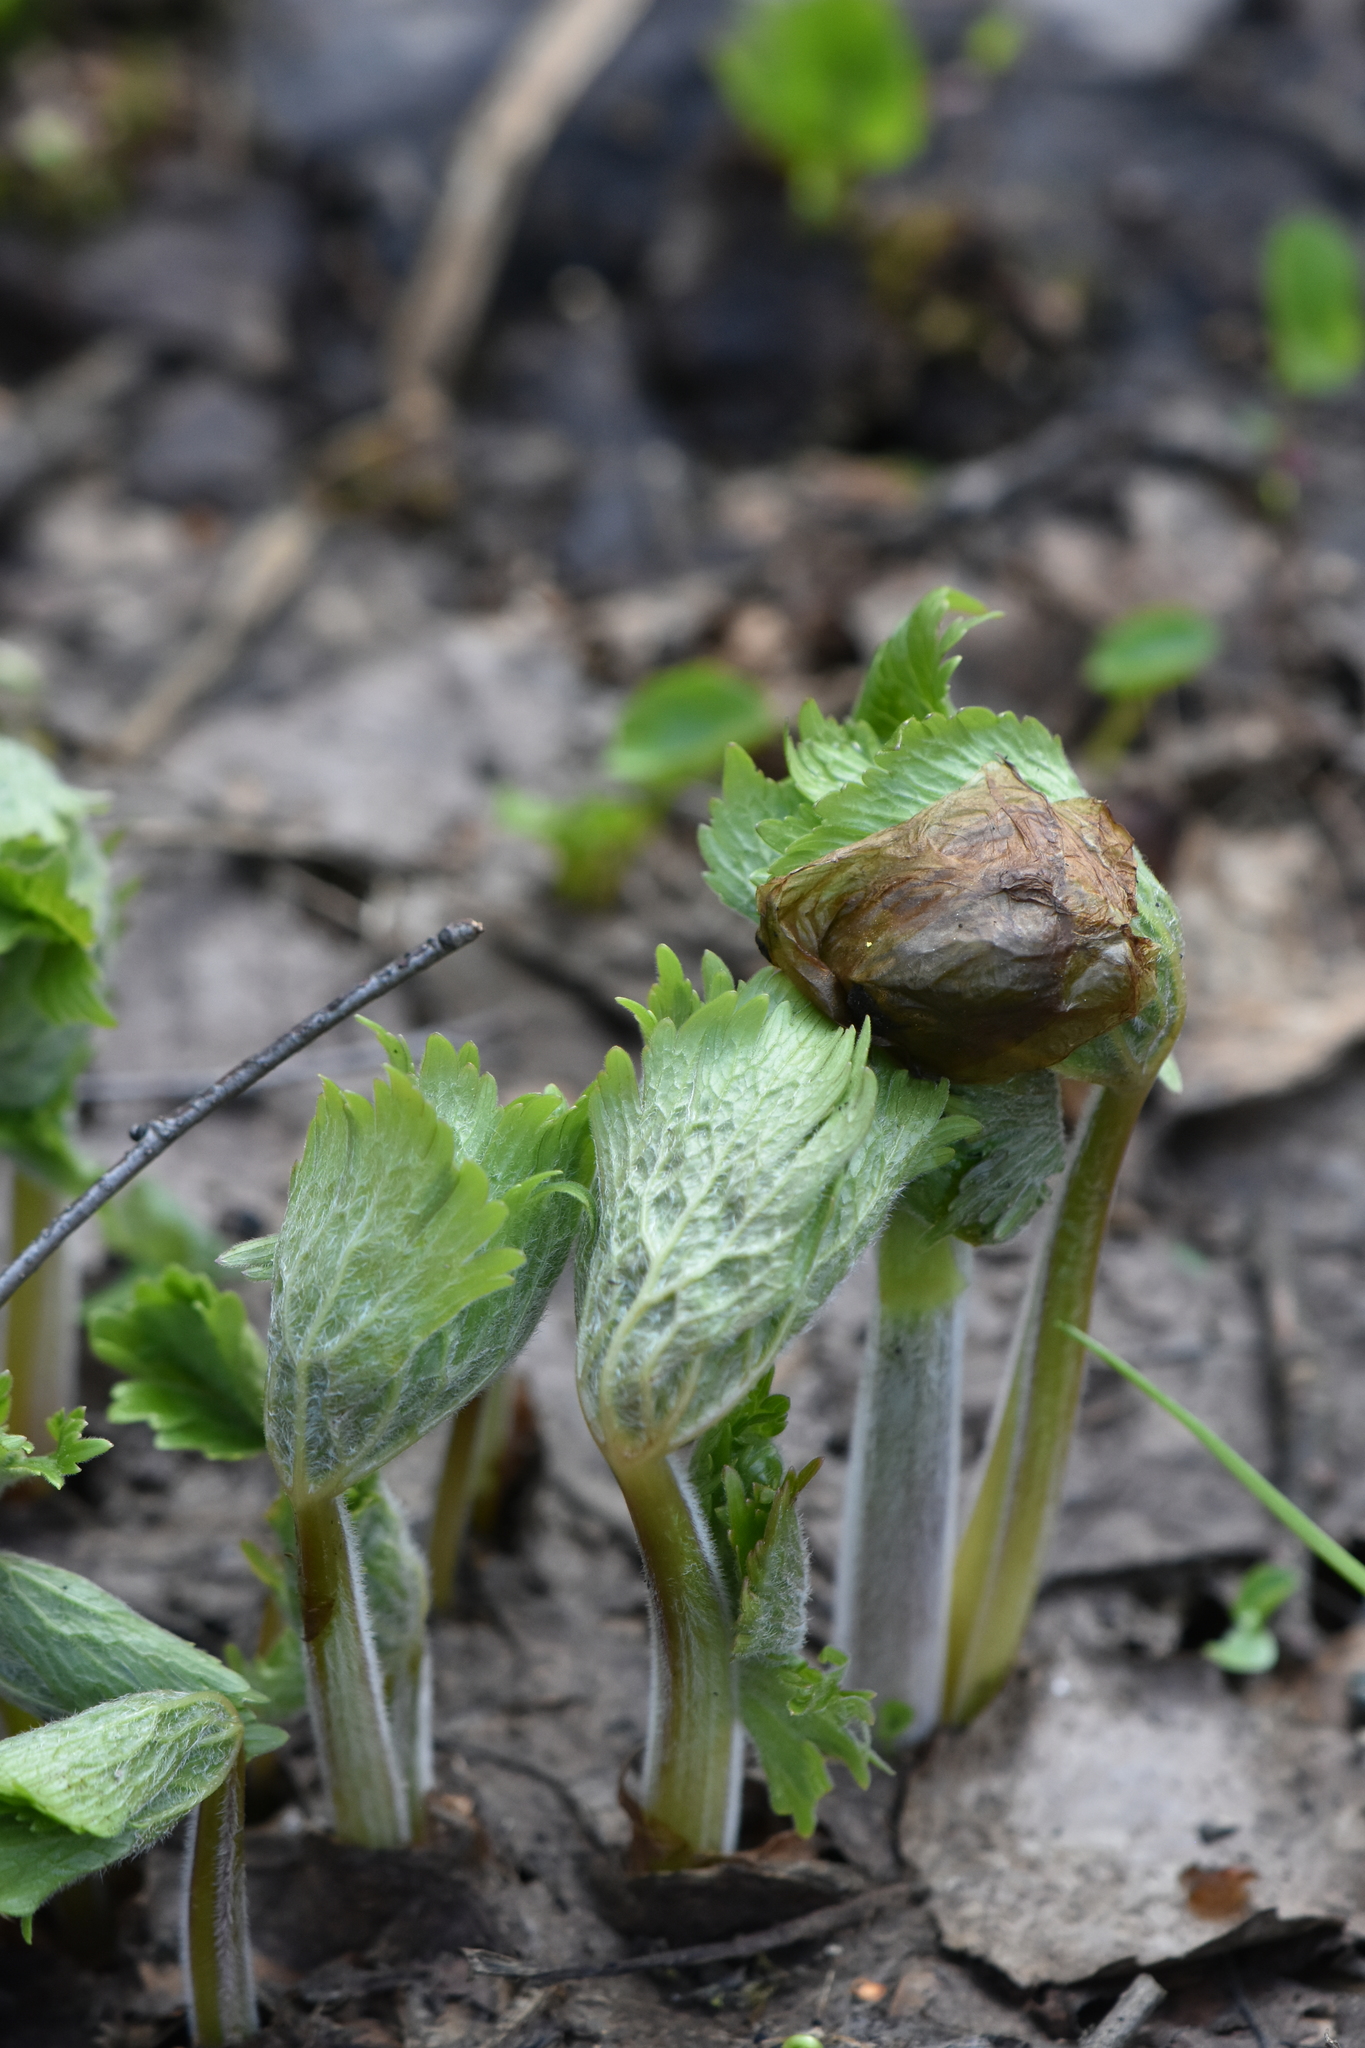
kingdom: Plantae
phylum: Tracheophyta
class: Magnoliopsida
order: Ranunculales
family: Ranunculaceae
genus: Aconitum
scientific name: Aconitum septentrionale
